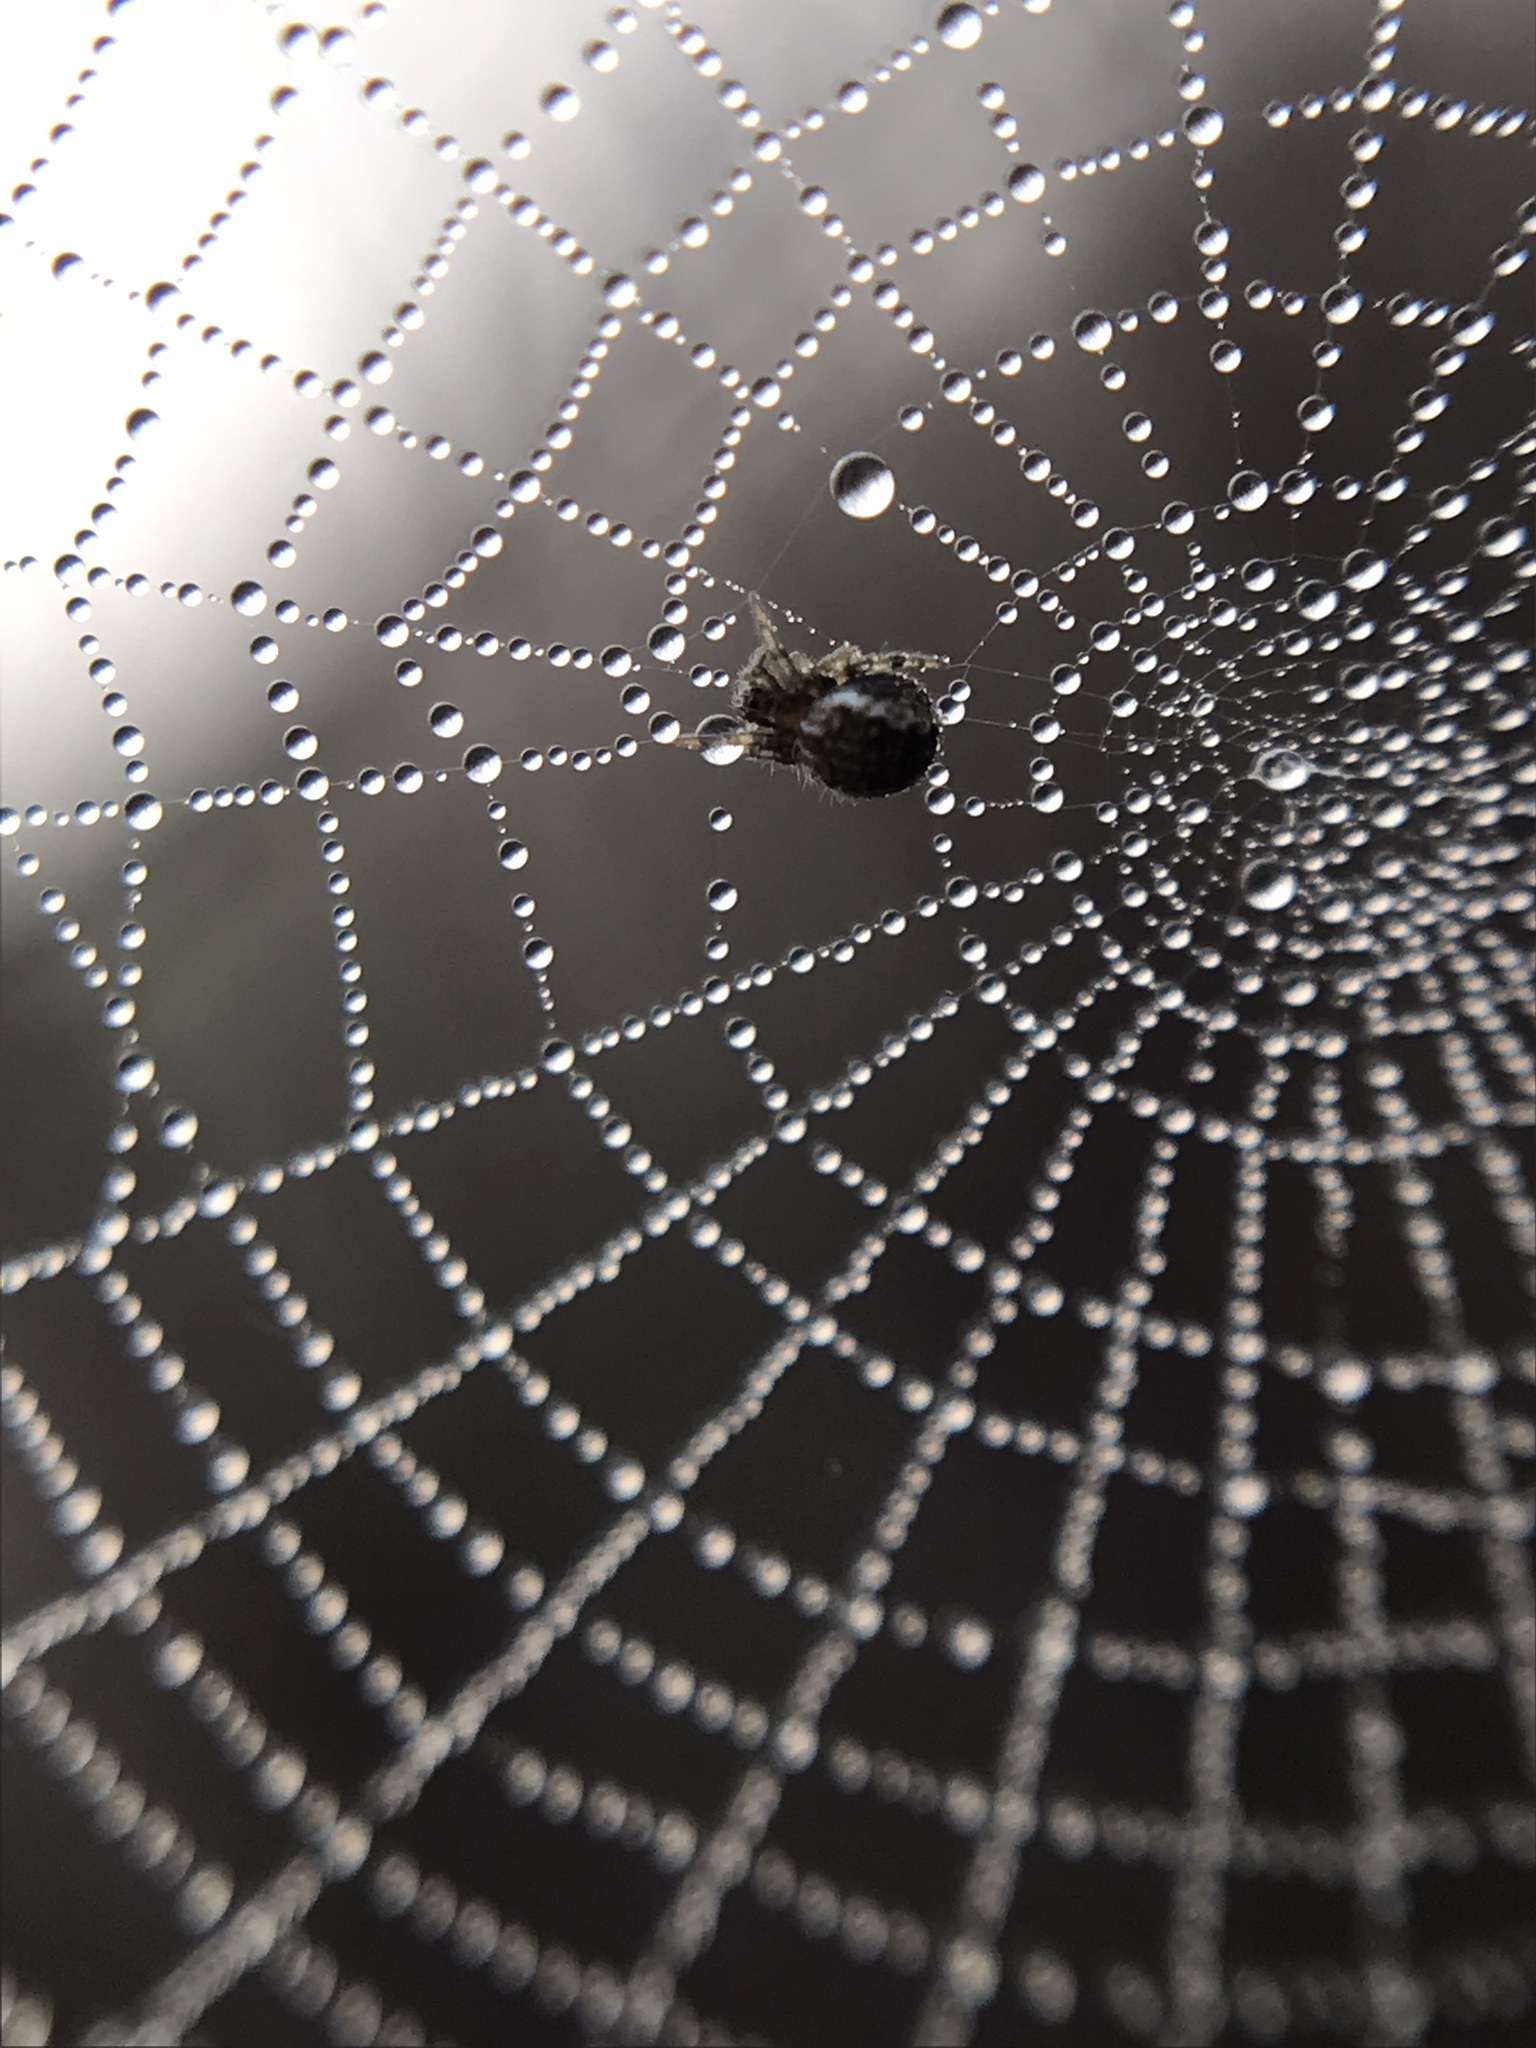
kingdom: Animalia
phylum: Arthropoda
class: Arachnida
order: Araneae
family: Araneidae
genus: Metepeira
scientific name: Metepeira
